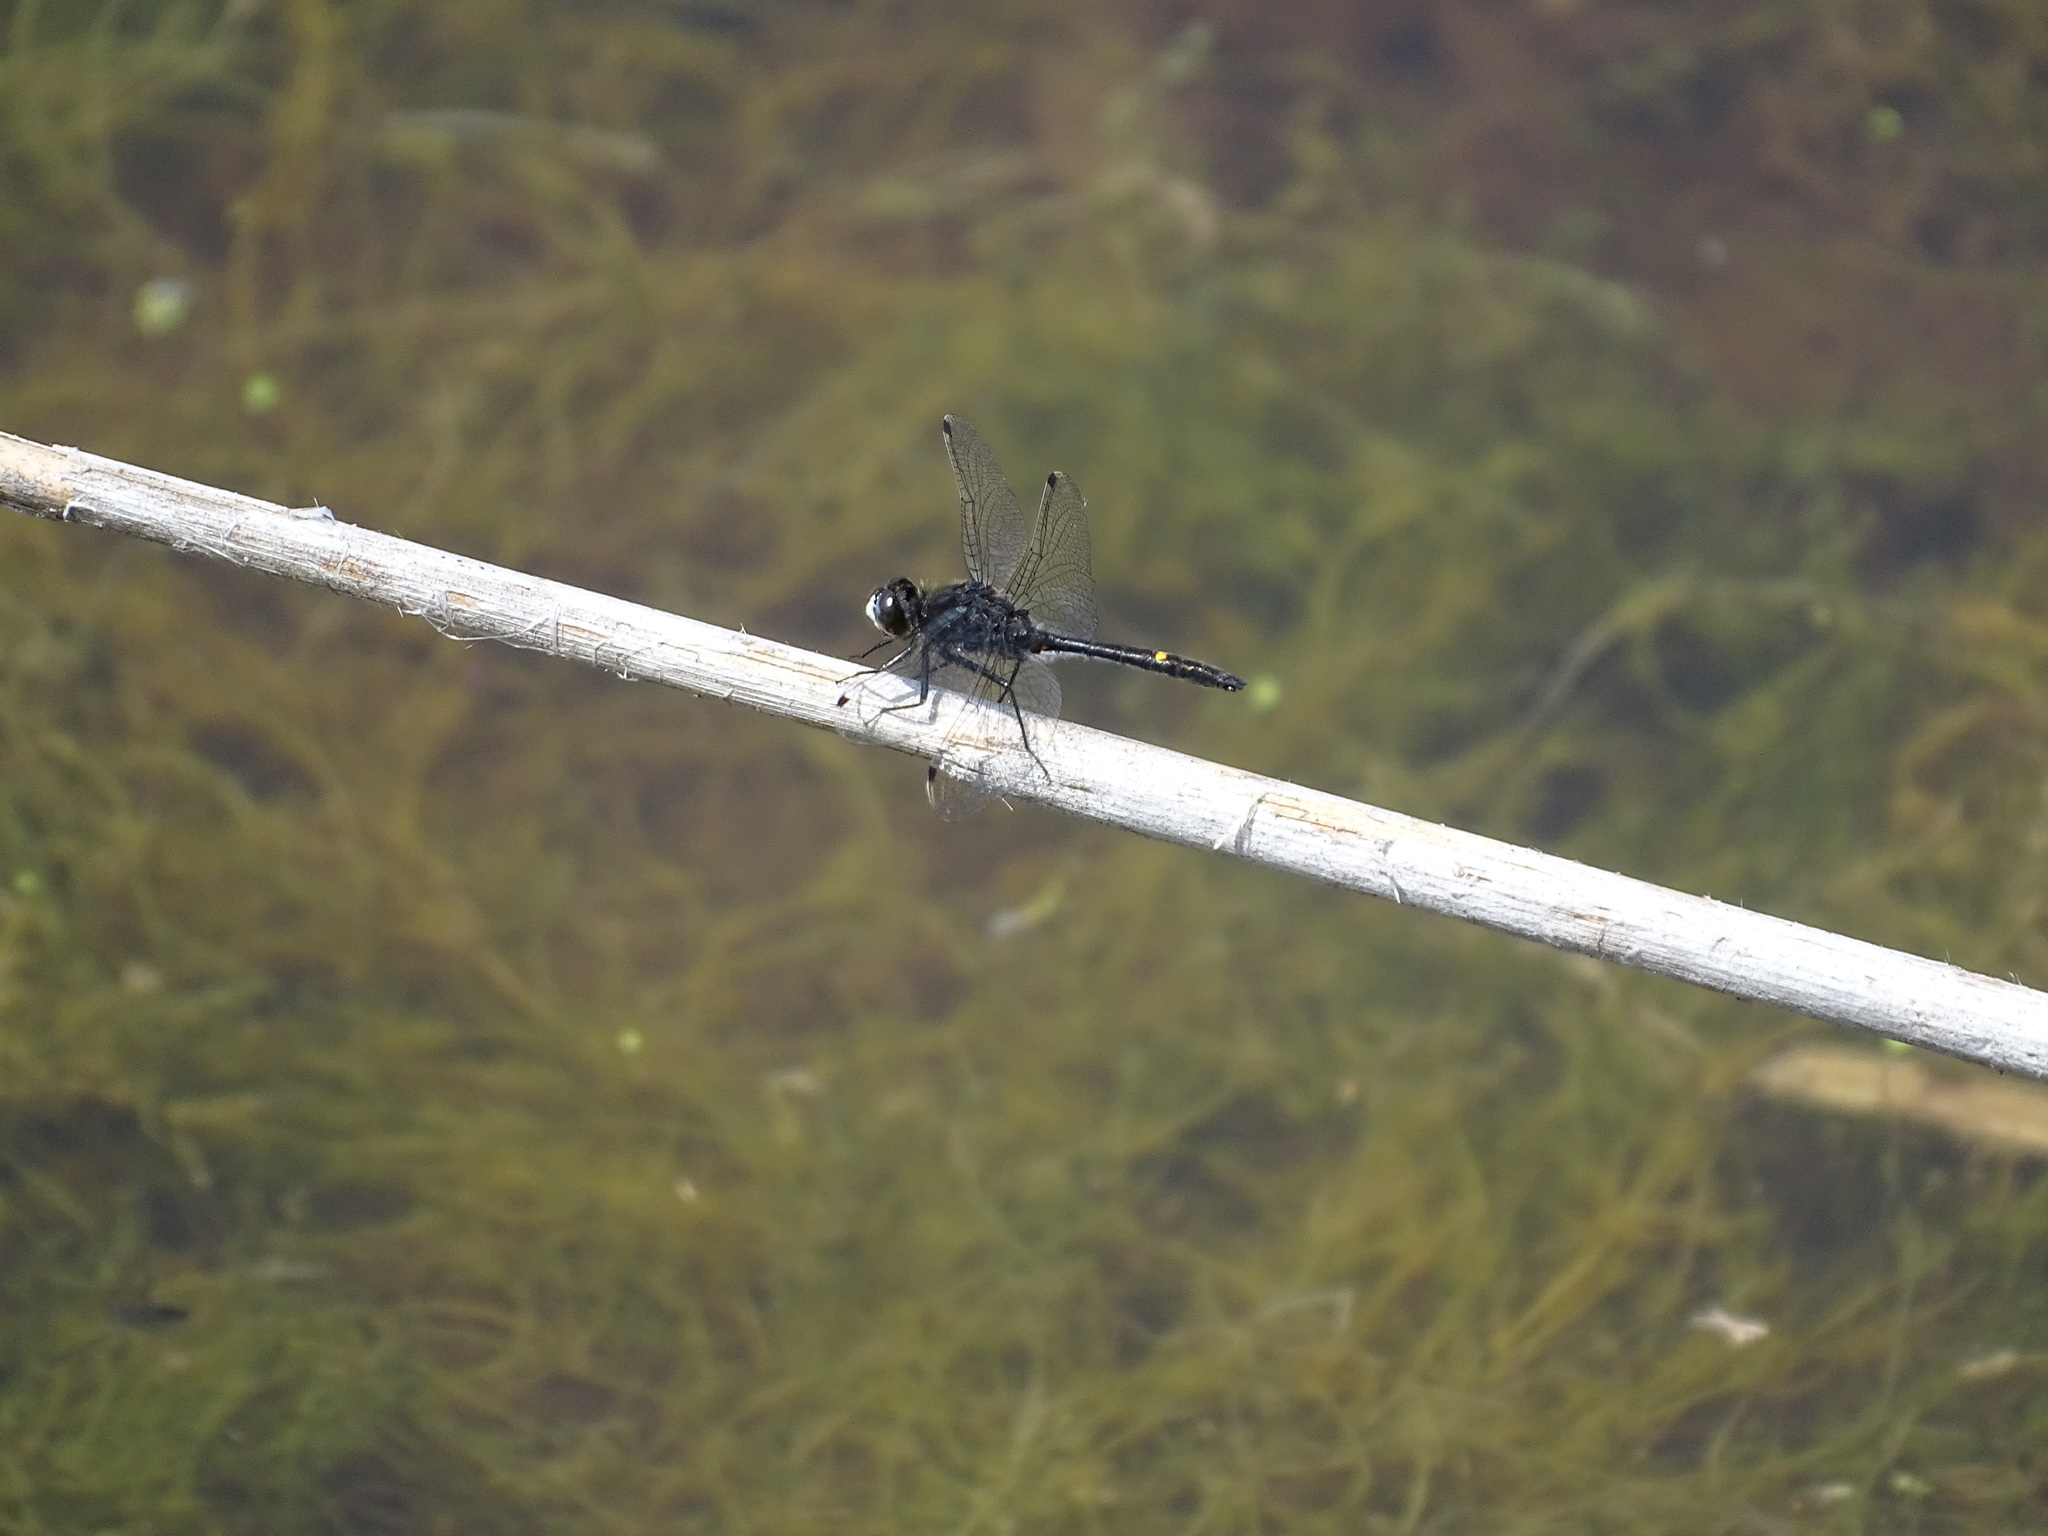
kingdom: Animalia
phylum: Arthropoda
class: Insecta
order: Odonata
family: Libellulidae
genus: Leucorrhinia
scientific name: Leucorrhinia intacta
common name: Dot-tailed whiteface
